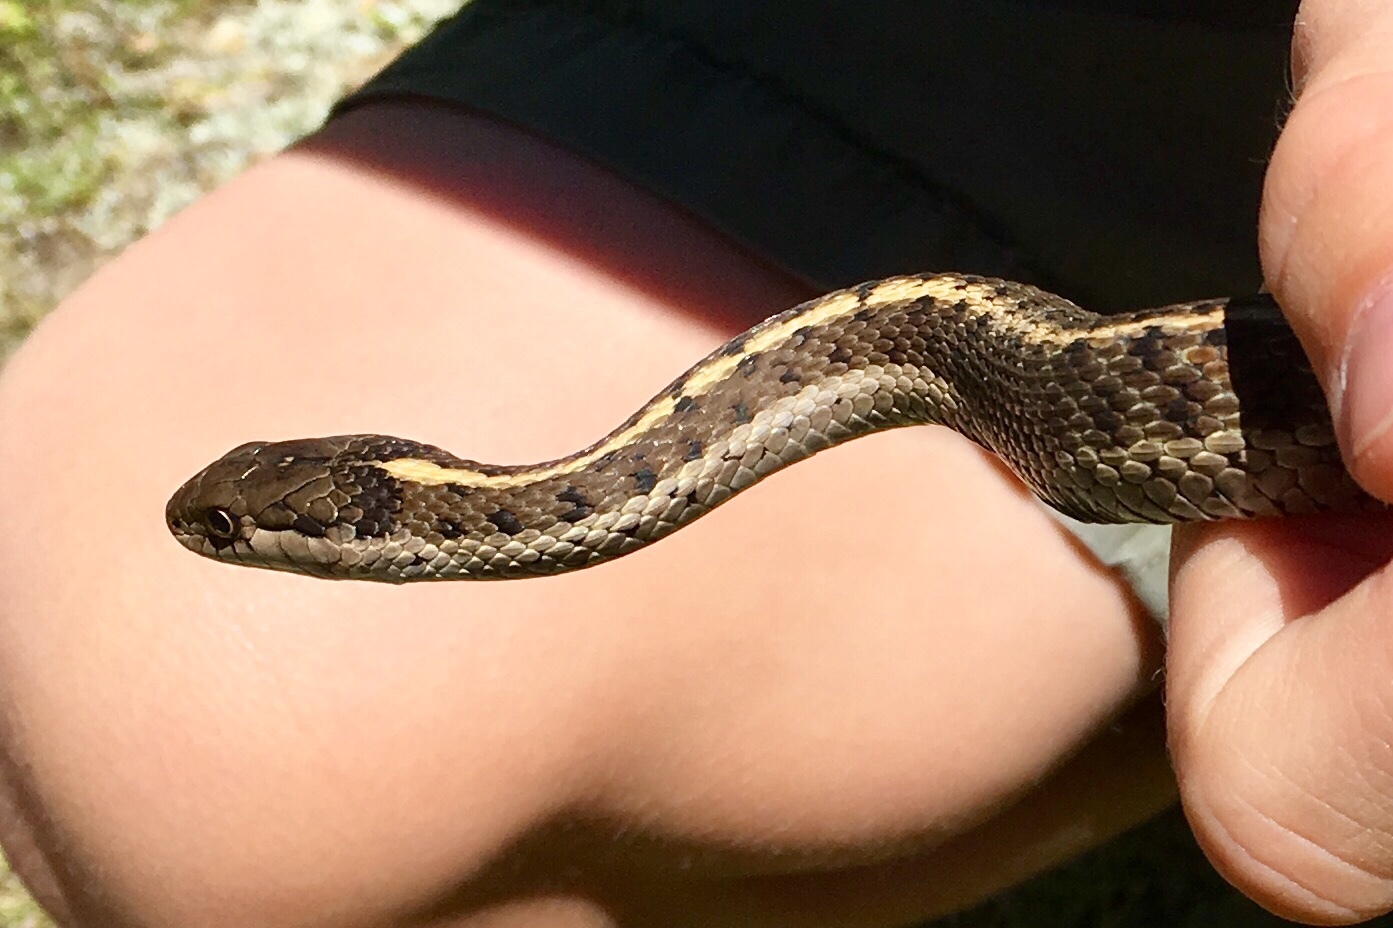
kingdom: Animalia
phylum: Chordata
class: Squamata
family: Colubridae
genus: Thamnophis
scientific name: Thamnophis elegans
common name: Western terrestrial garter snake
